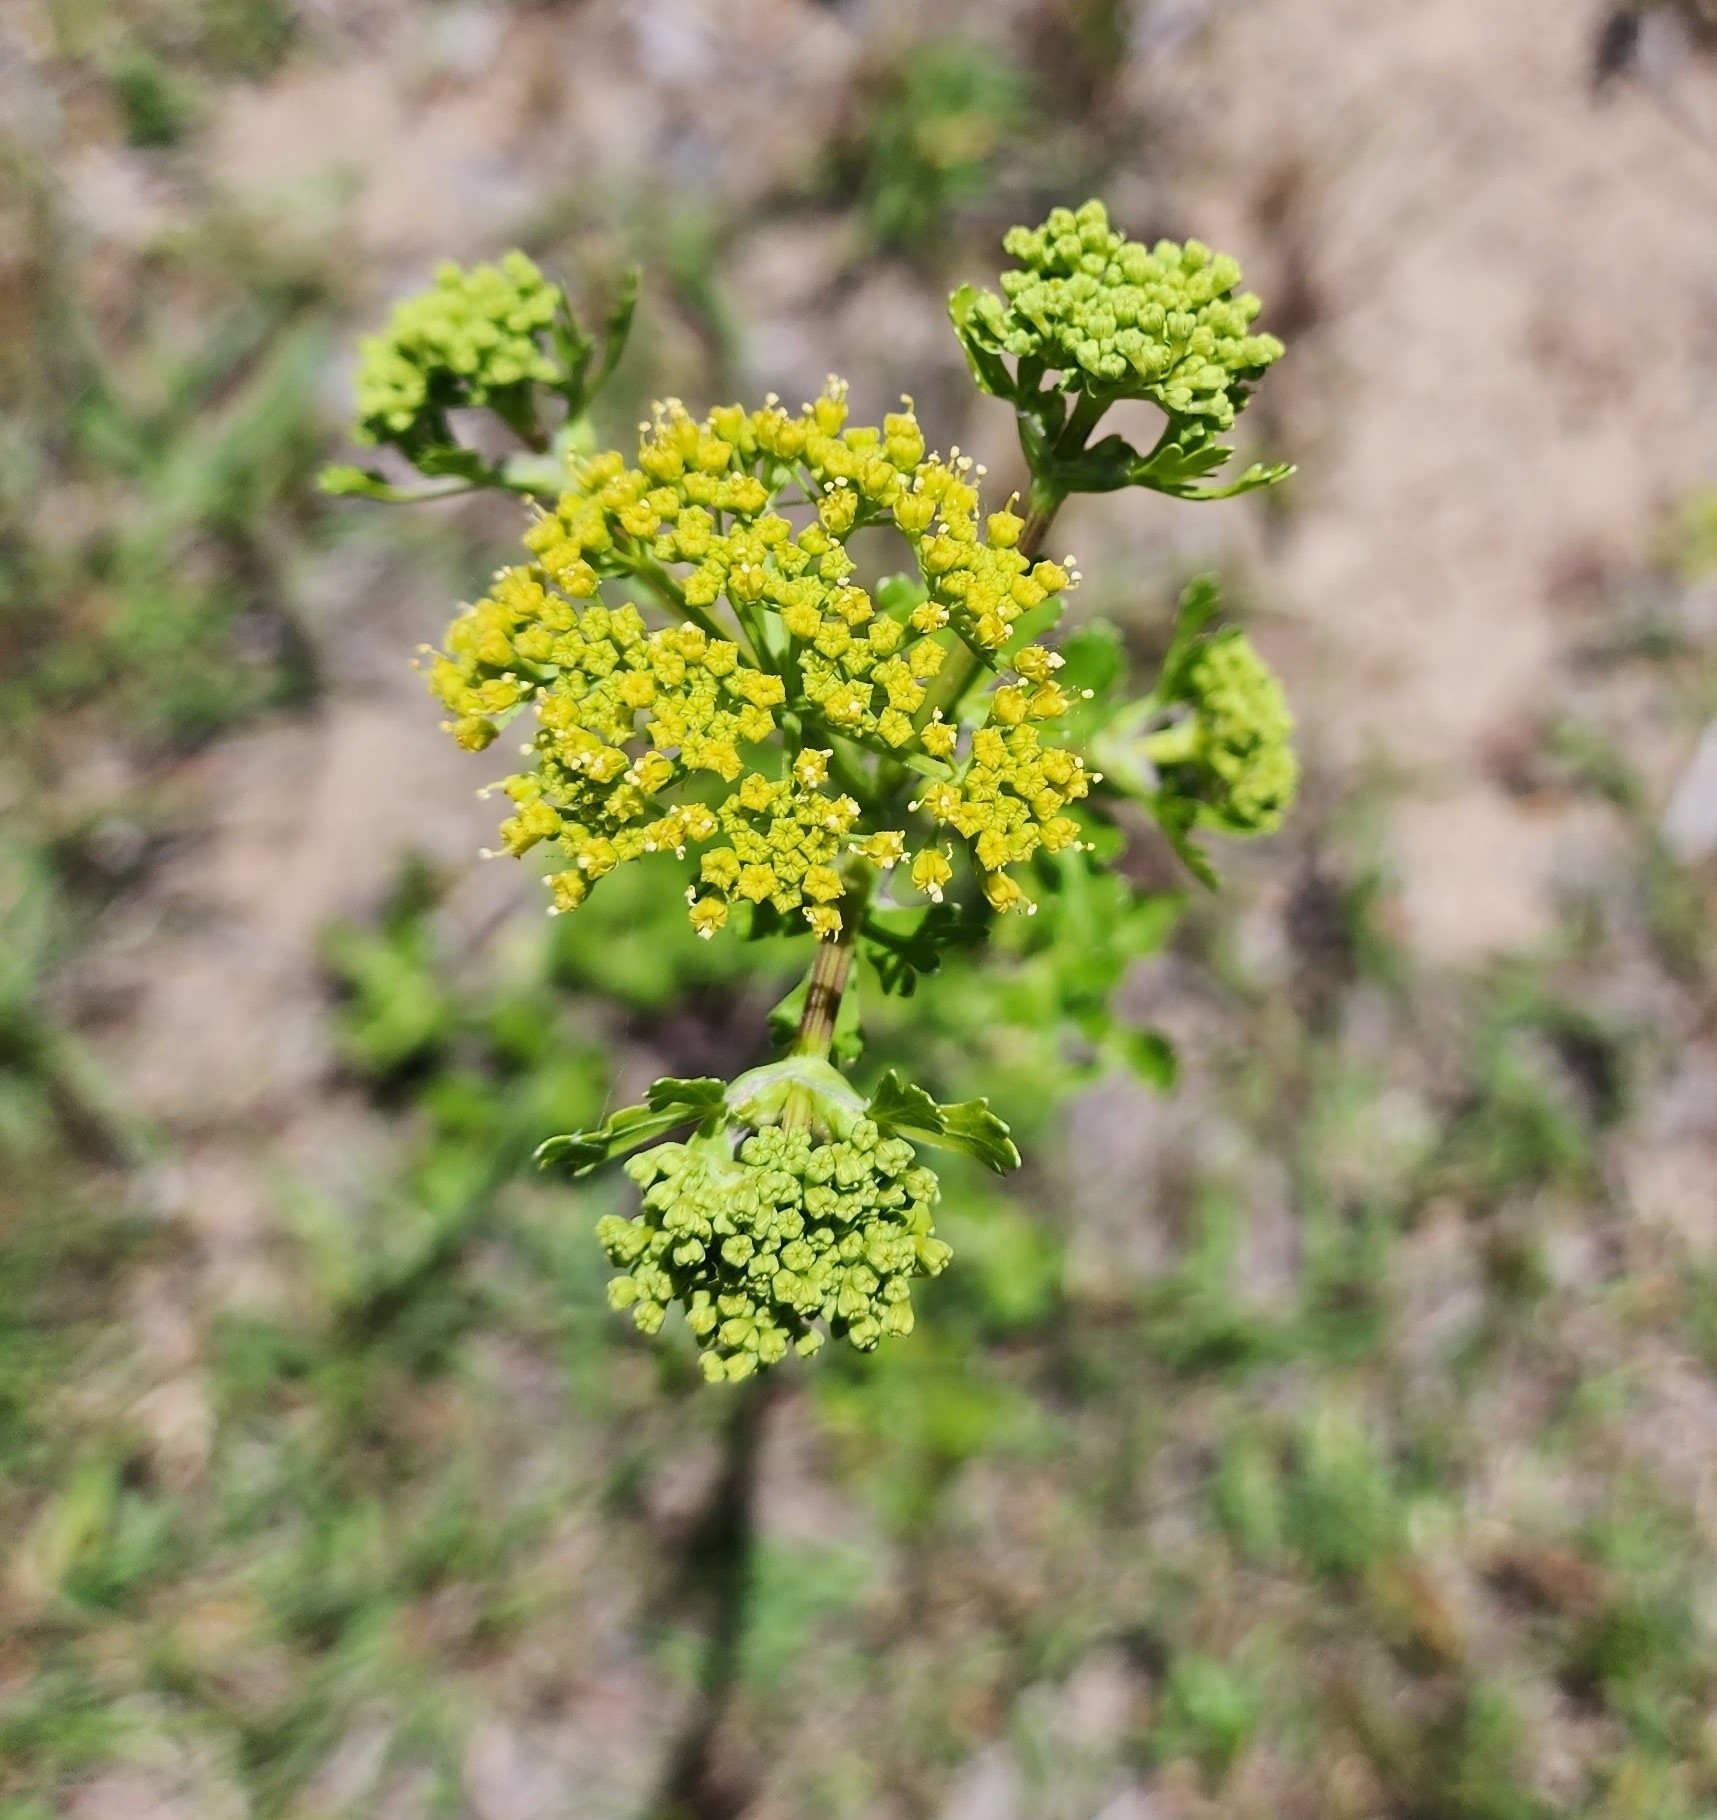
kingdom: Plantae
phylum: Tracheophyta
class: Magnoliopsida
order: Apiales
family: Apiaceae
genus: Polytaenia
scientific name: Polytaenia texana
